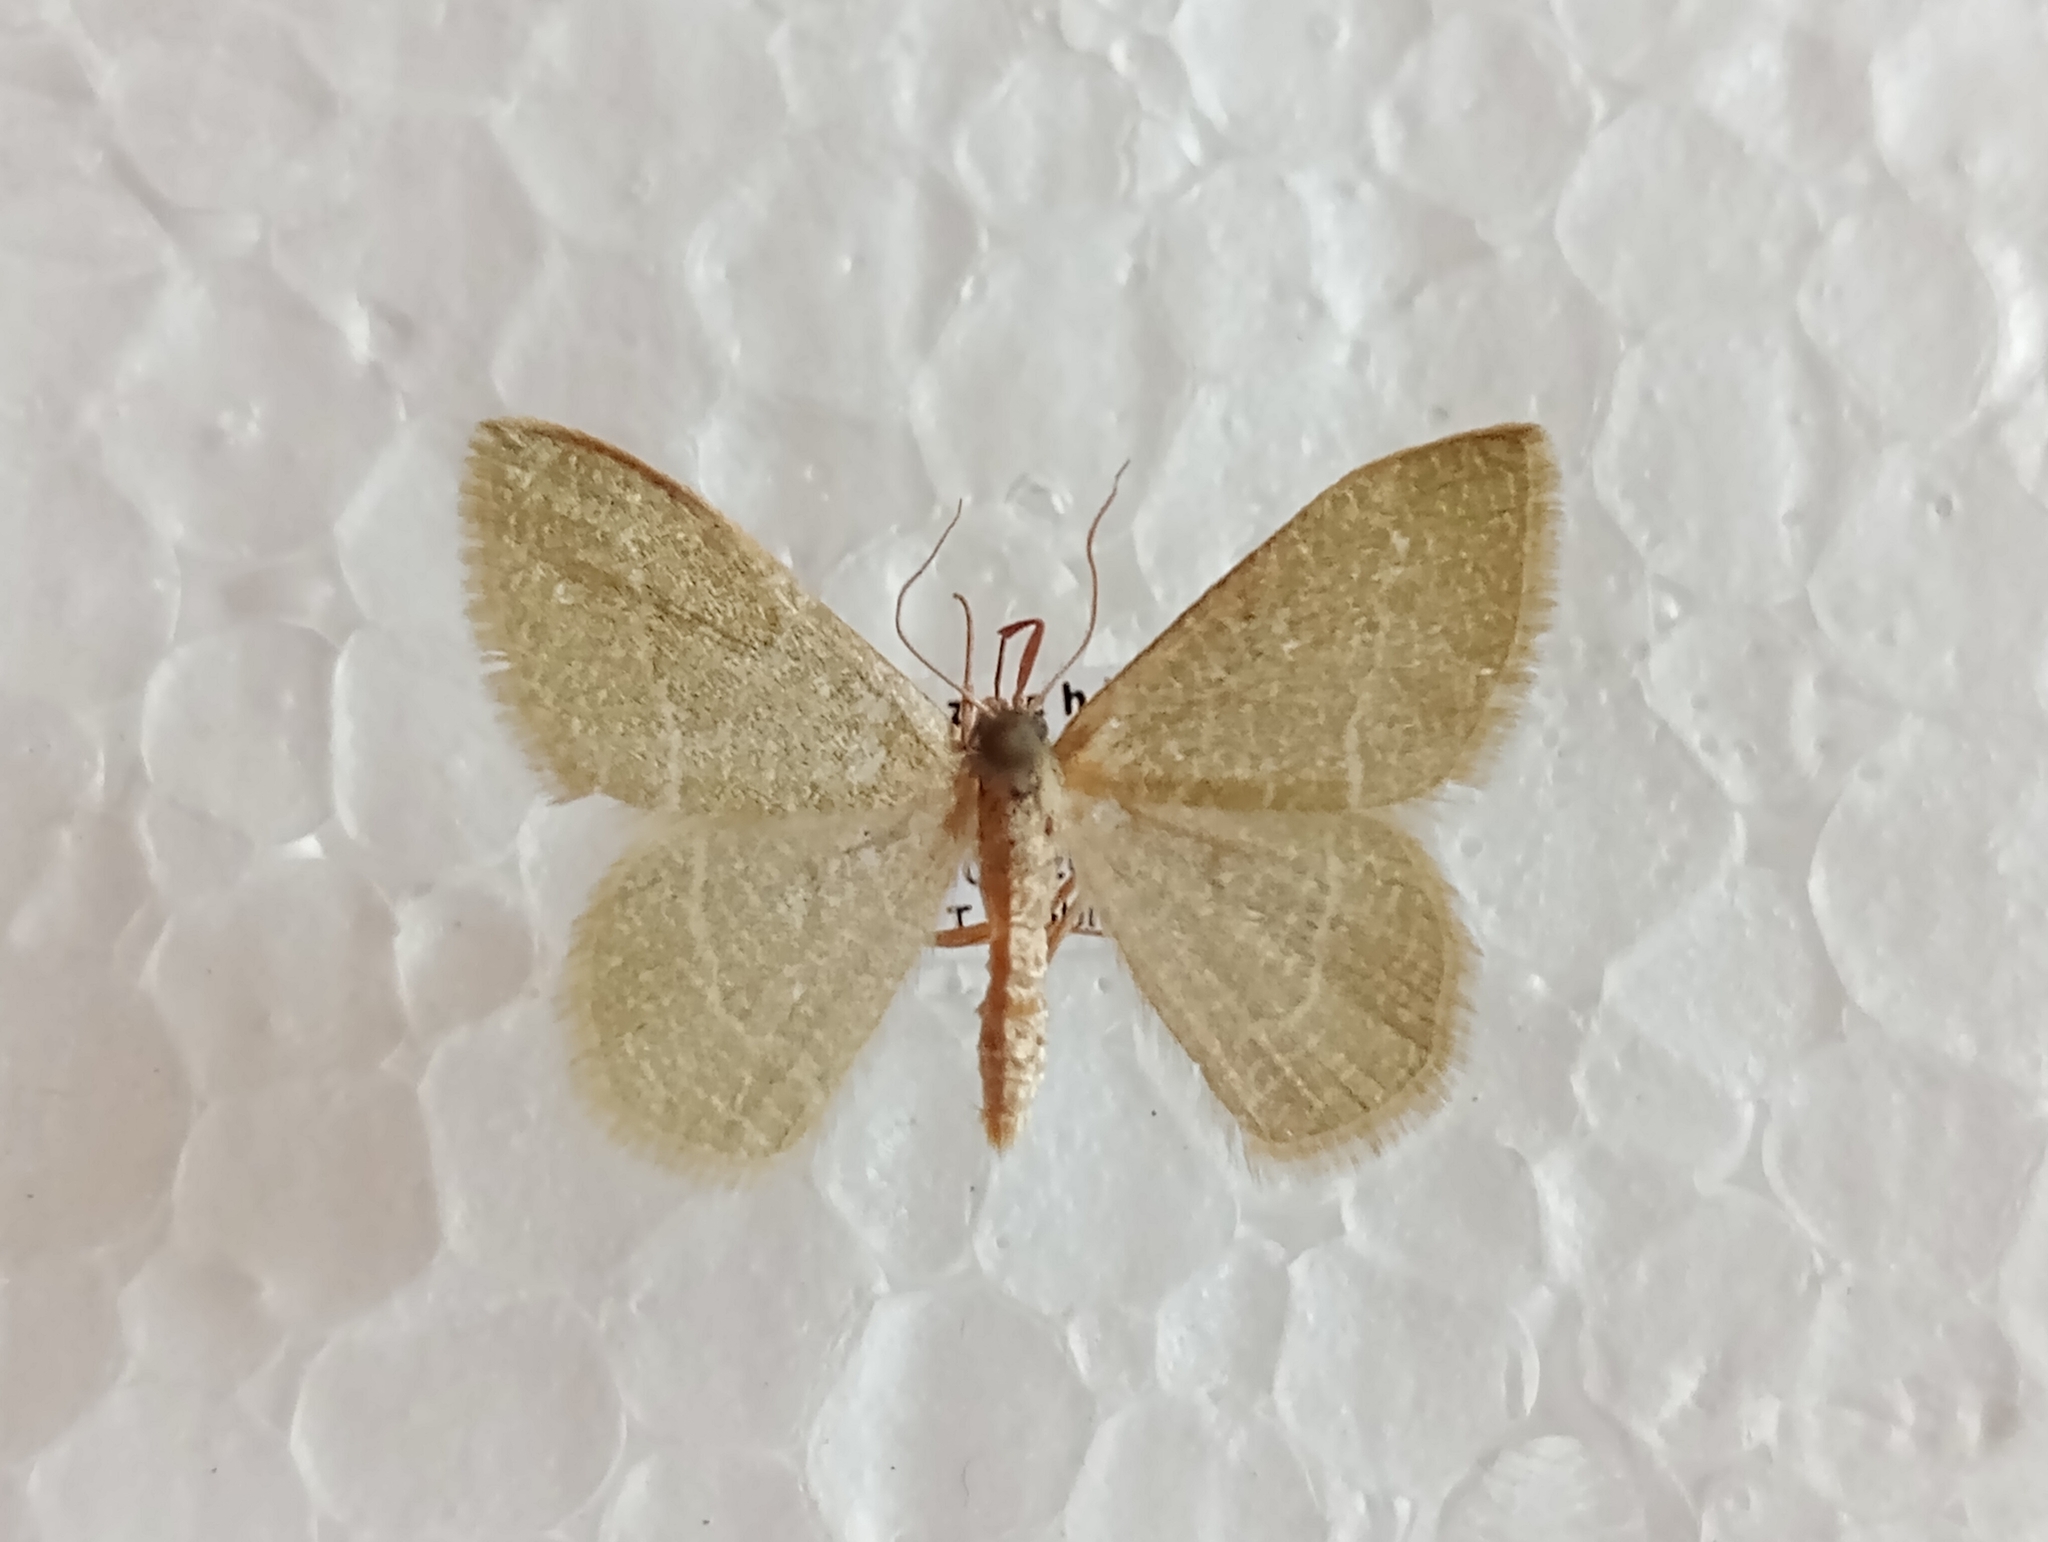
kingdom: Animalia
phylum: Arthropoda
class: Insecta
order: Lepidoptera
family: Geometridae
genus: Chlorissa
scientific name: Chlorissa etruscaria
